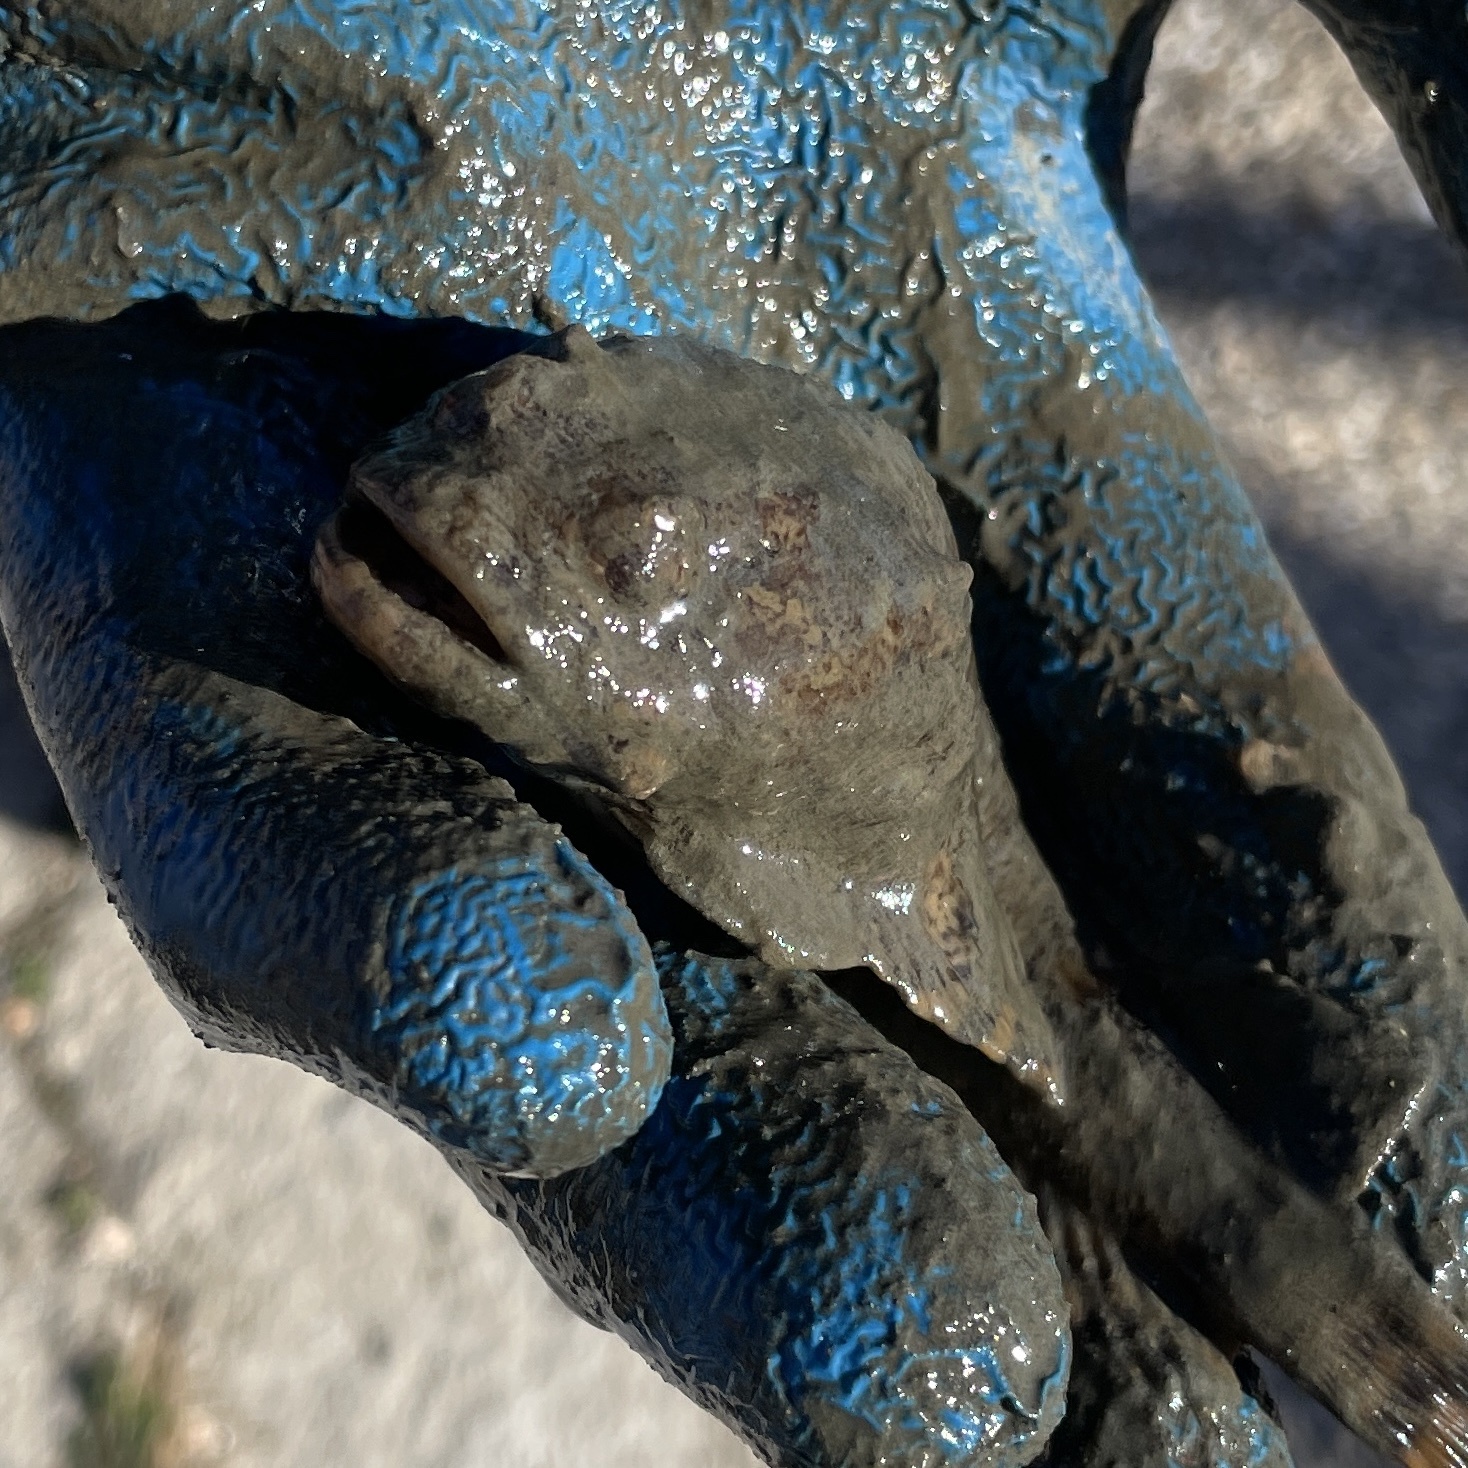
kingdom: Animalia
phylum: Chordata
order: Batrachoidiformes
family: Batrachoididae
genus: Opsanus
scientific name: Opsanus tau
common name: Oyster toadfish
